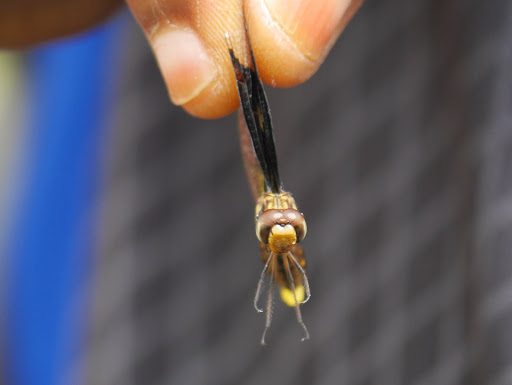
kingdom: Animalia
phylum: Arthropoda
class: Insecta
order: Odonata
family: Libellulidae
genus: Palpopleura
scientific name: Palpopleura lucia
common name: Lucia widow
